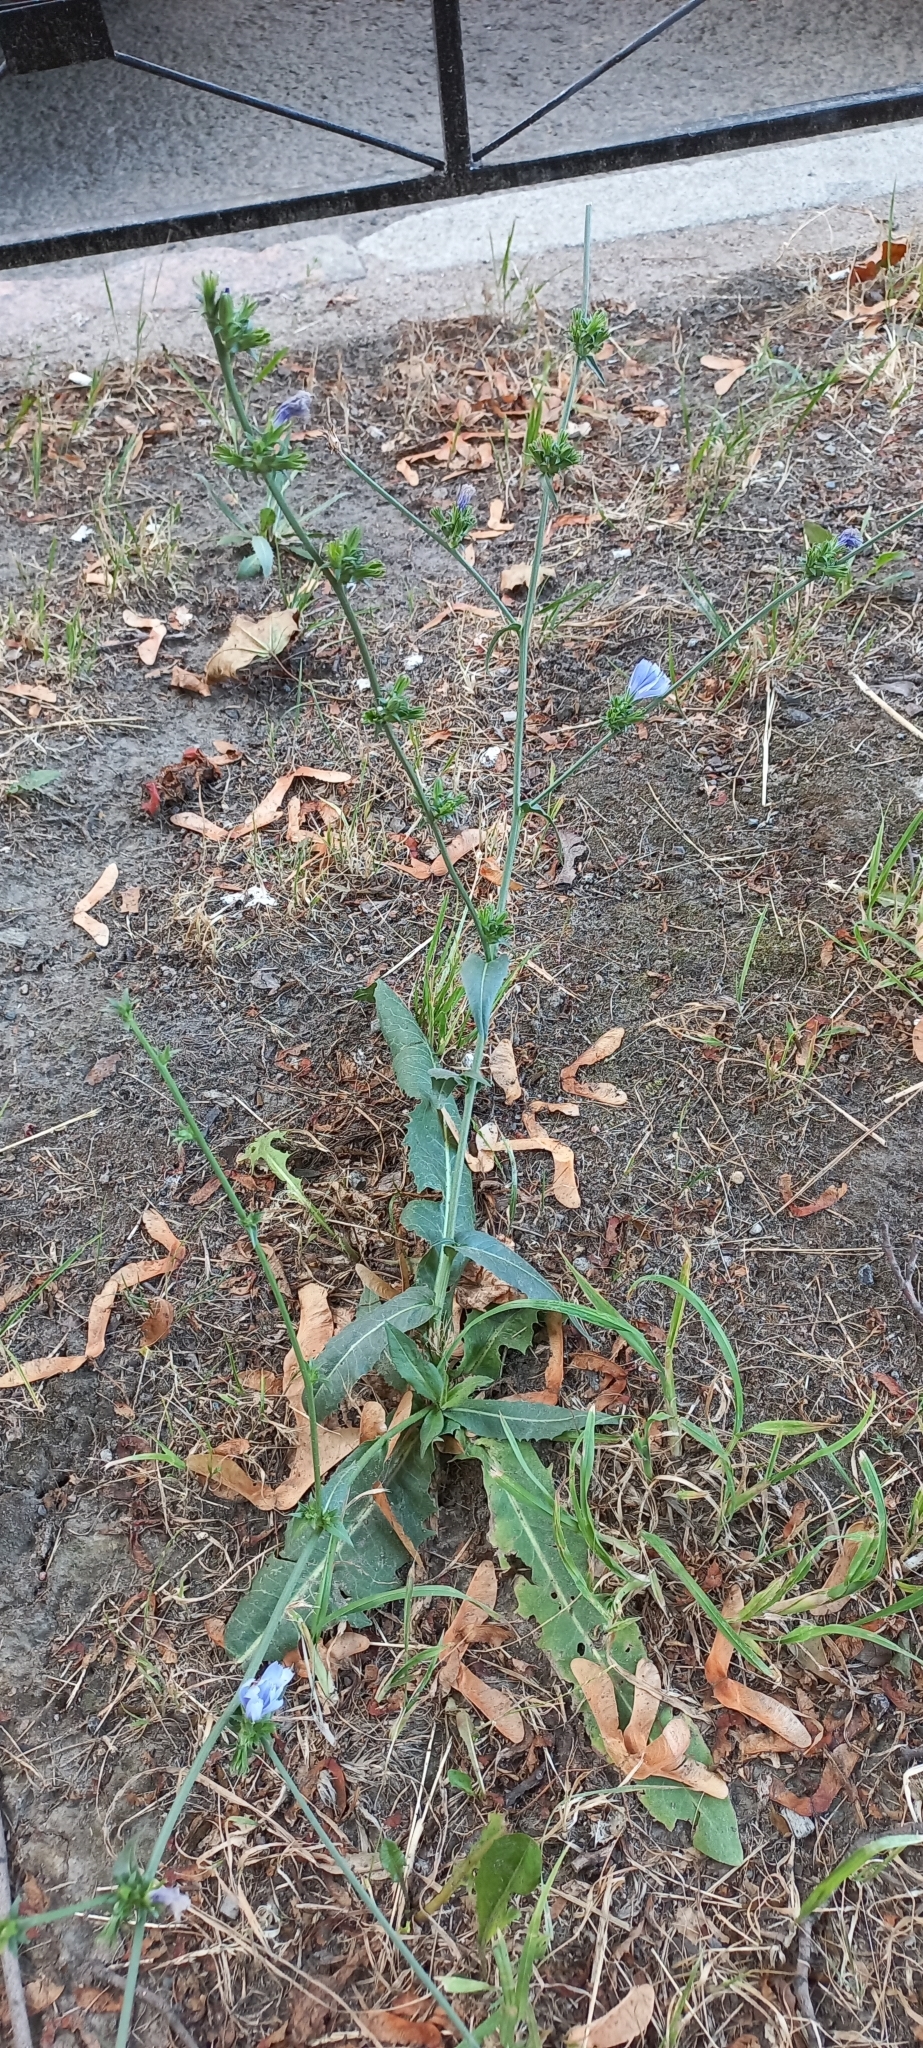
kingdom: Plantae
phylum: Tracheophyta
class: Magnoliopsida
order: Asterales
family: Asteraceae
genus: Cichorium
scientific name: Cichorium intybus
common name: Chicory
